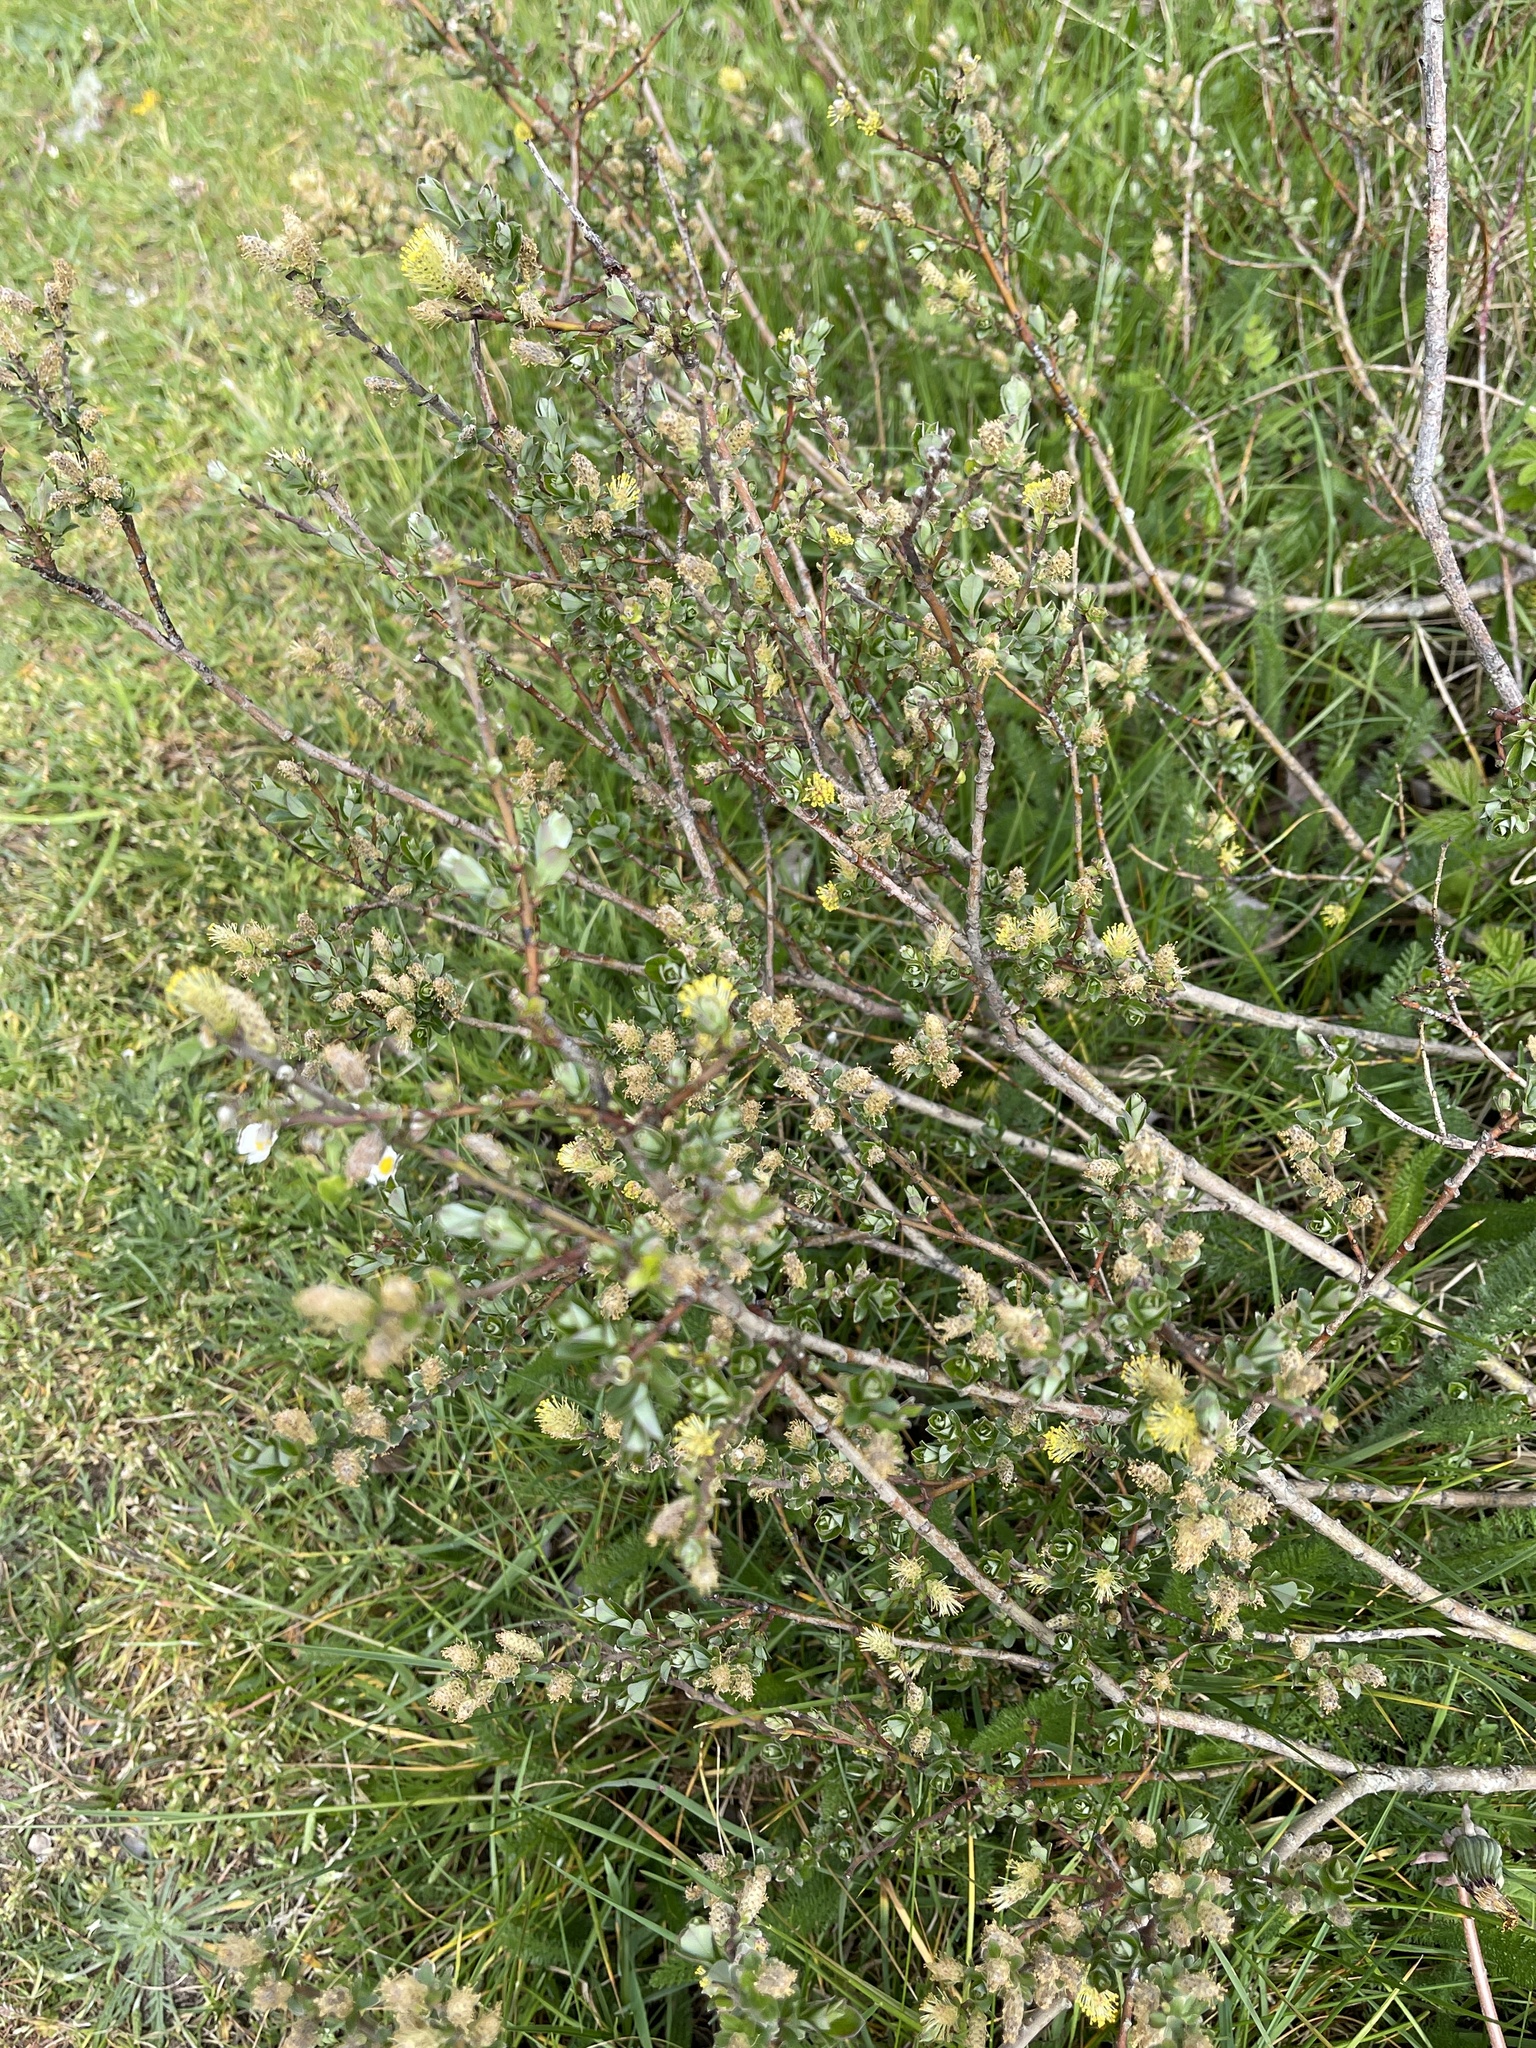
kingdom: Plantae
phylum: Tracheophyta
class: Magnoliopsida
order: Malpighiales
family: Salicaceae
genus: Salix
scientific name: Salix repens
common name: Creeping willow
